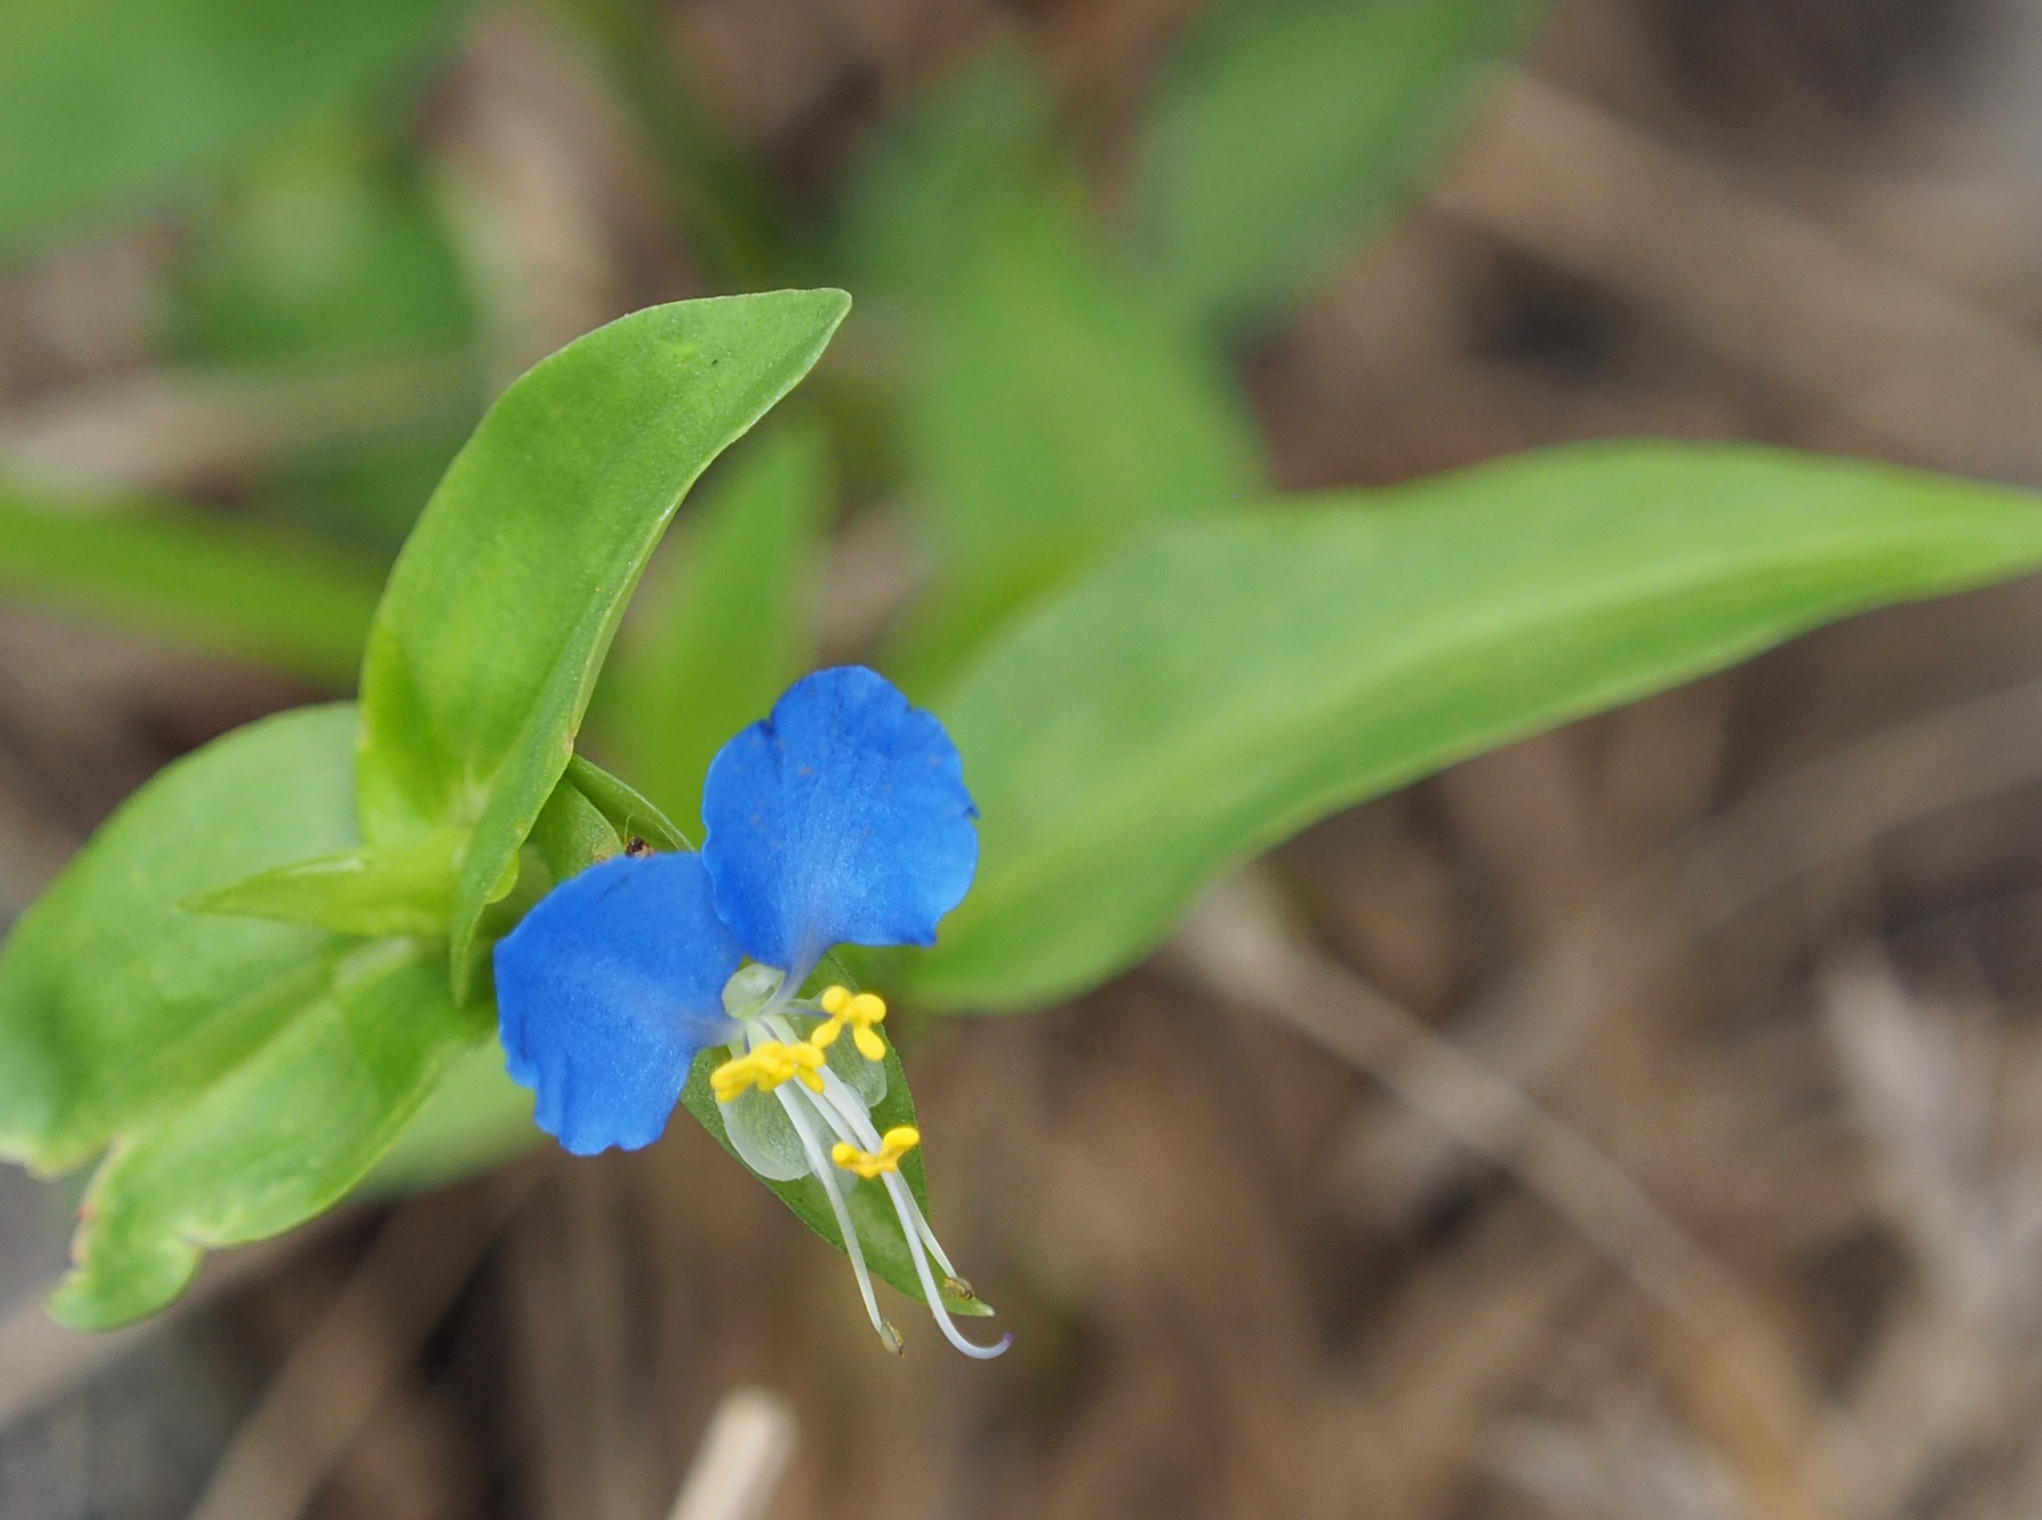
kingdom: Plantae
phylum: Tracheophyta
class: Liliopsida
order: Commelinales
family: Commelinaceae
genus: Commelina
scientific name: Commelina communis
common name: Asiatic dayflower
